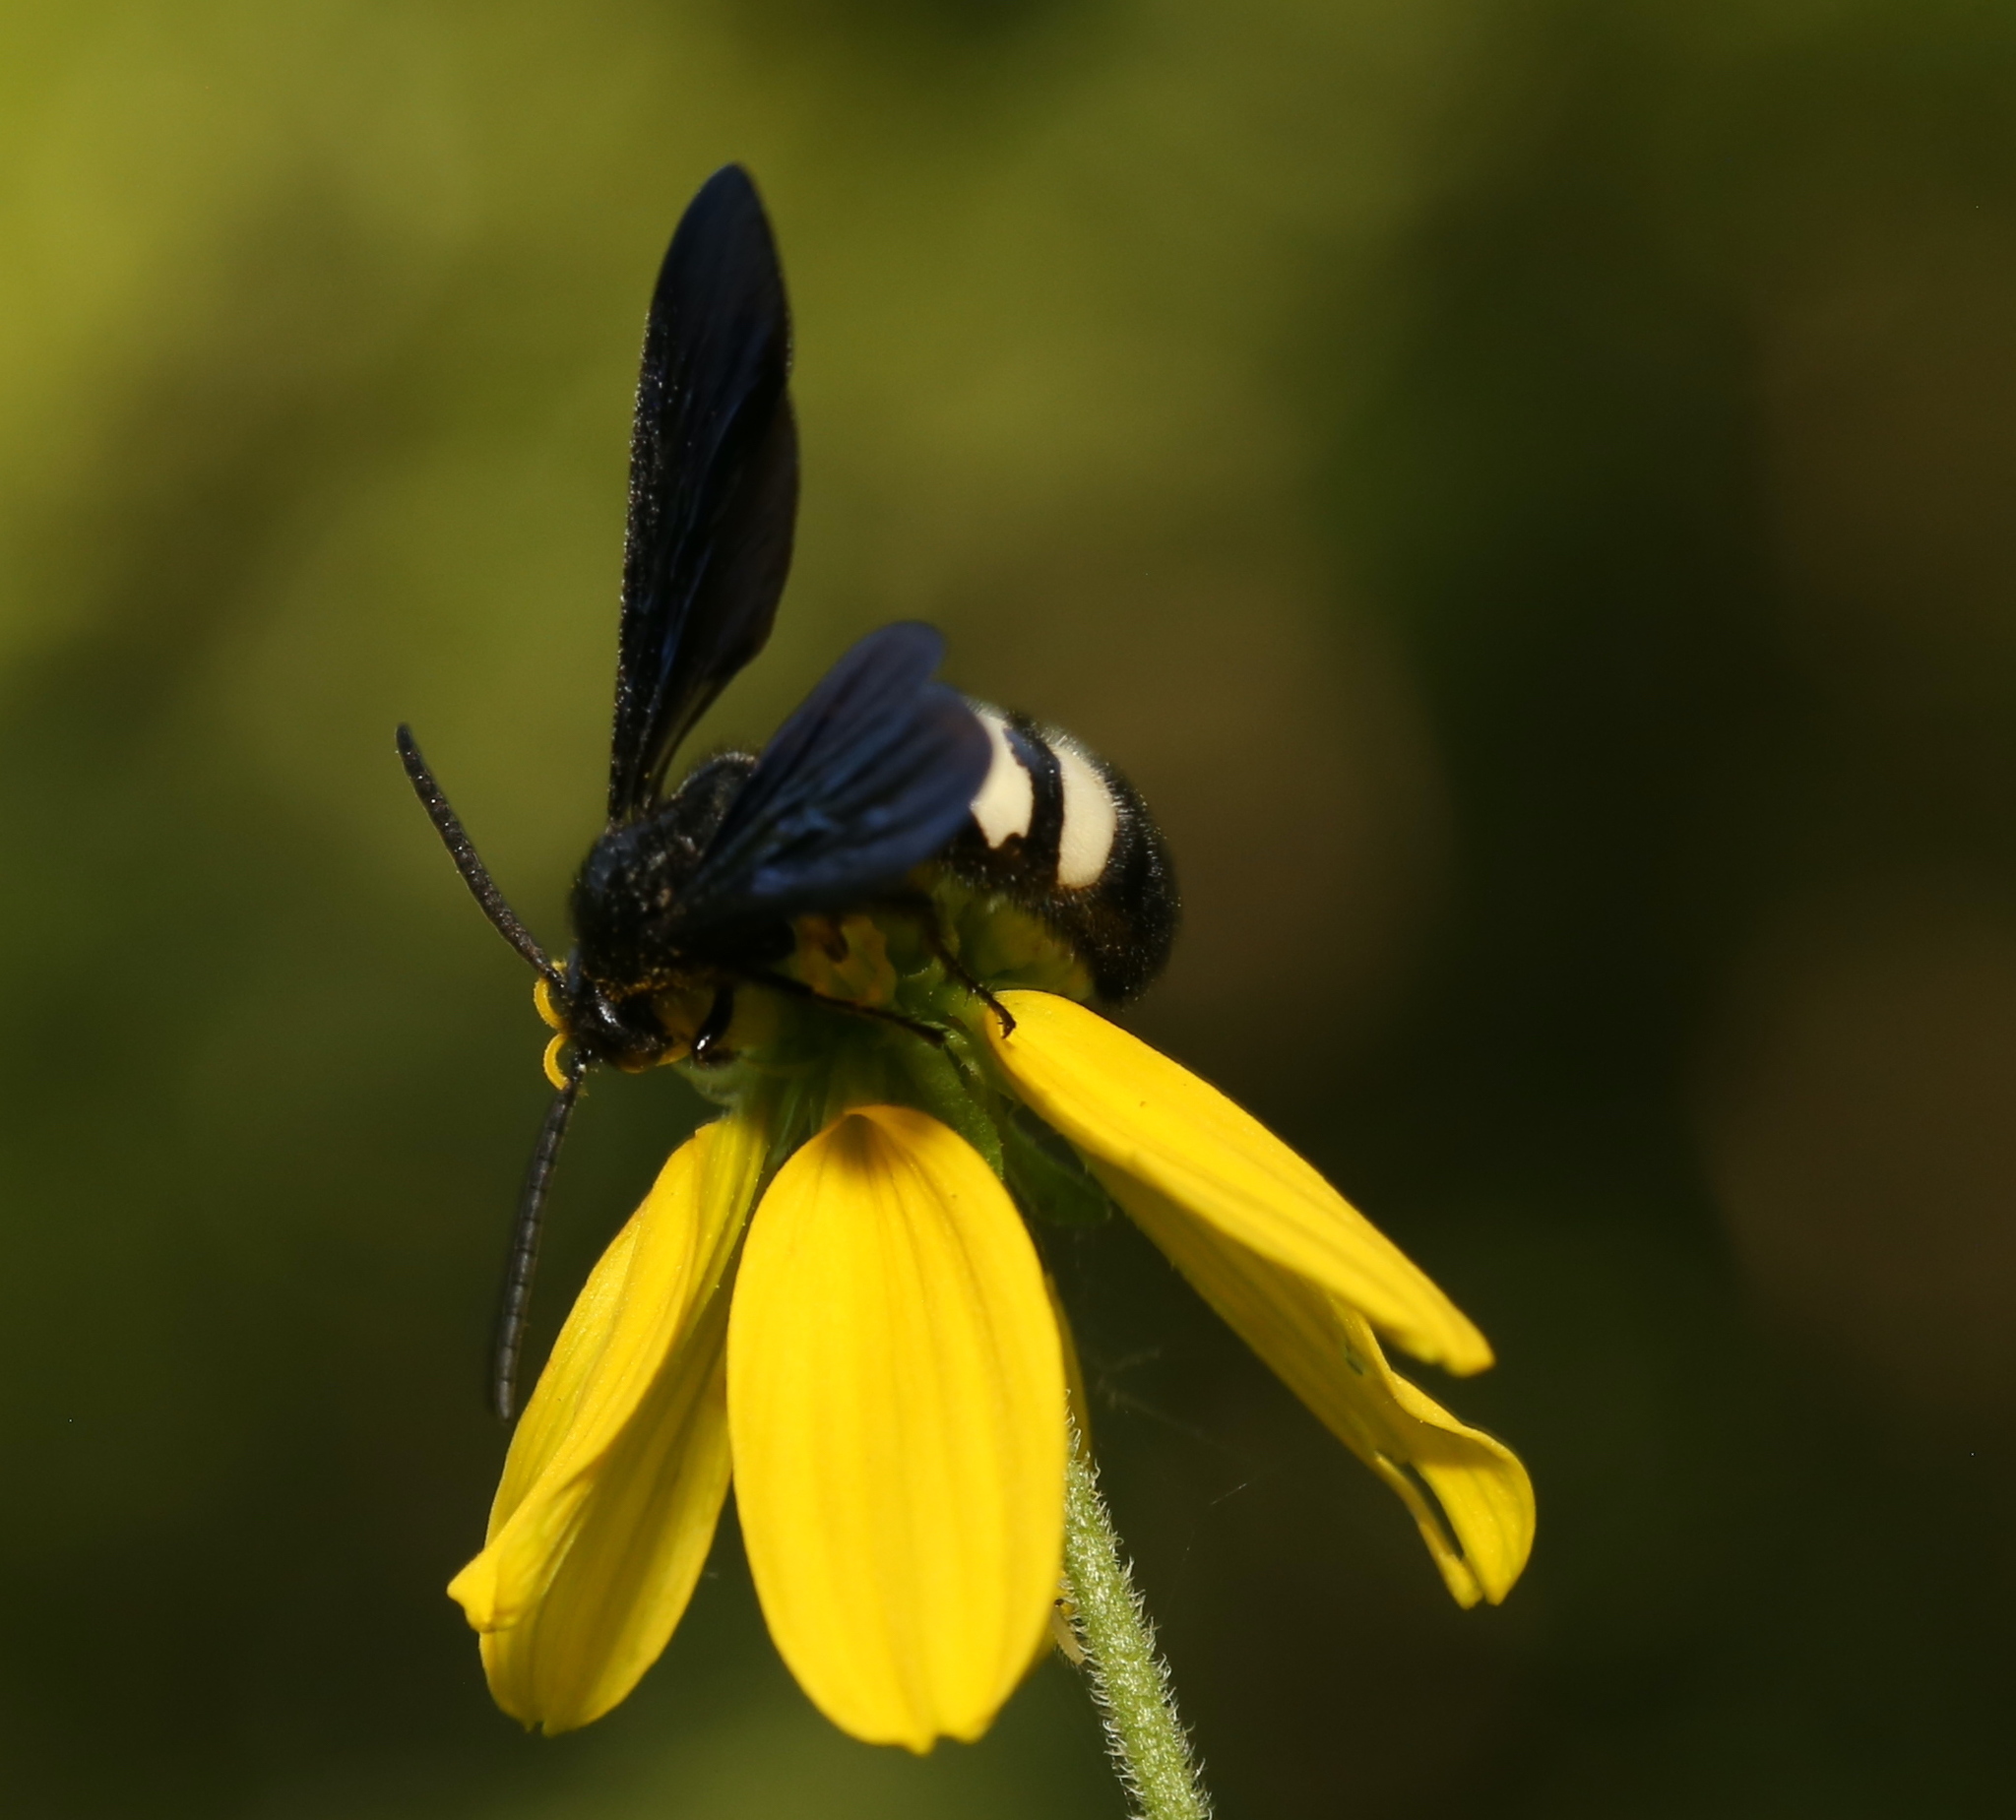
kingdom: Animalia
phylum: Arthropoda
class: Insecta
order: Hymenoptera
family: Scoliidae
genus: Scolia
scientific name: Scolia bicincta
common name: Double-banded scoliid wasp
